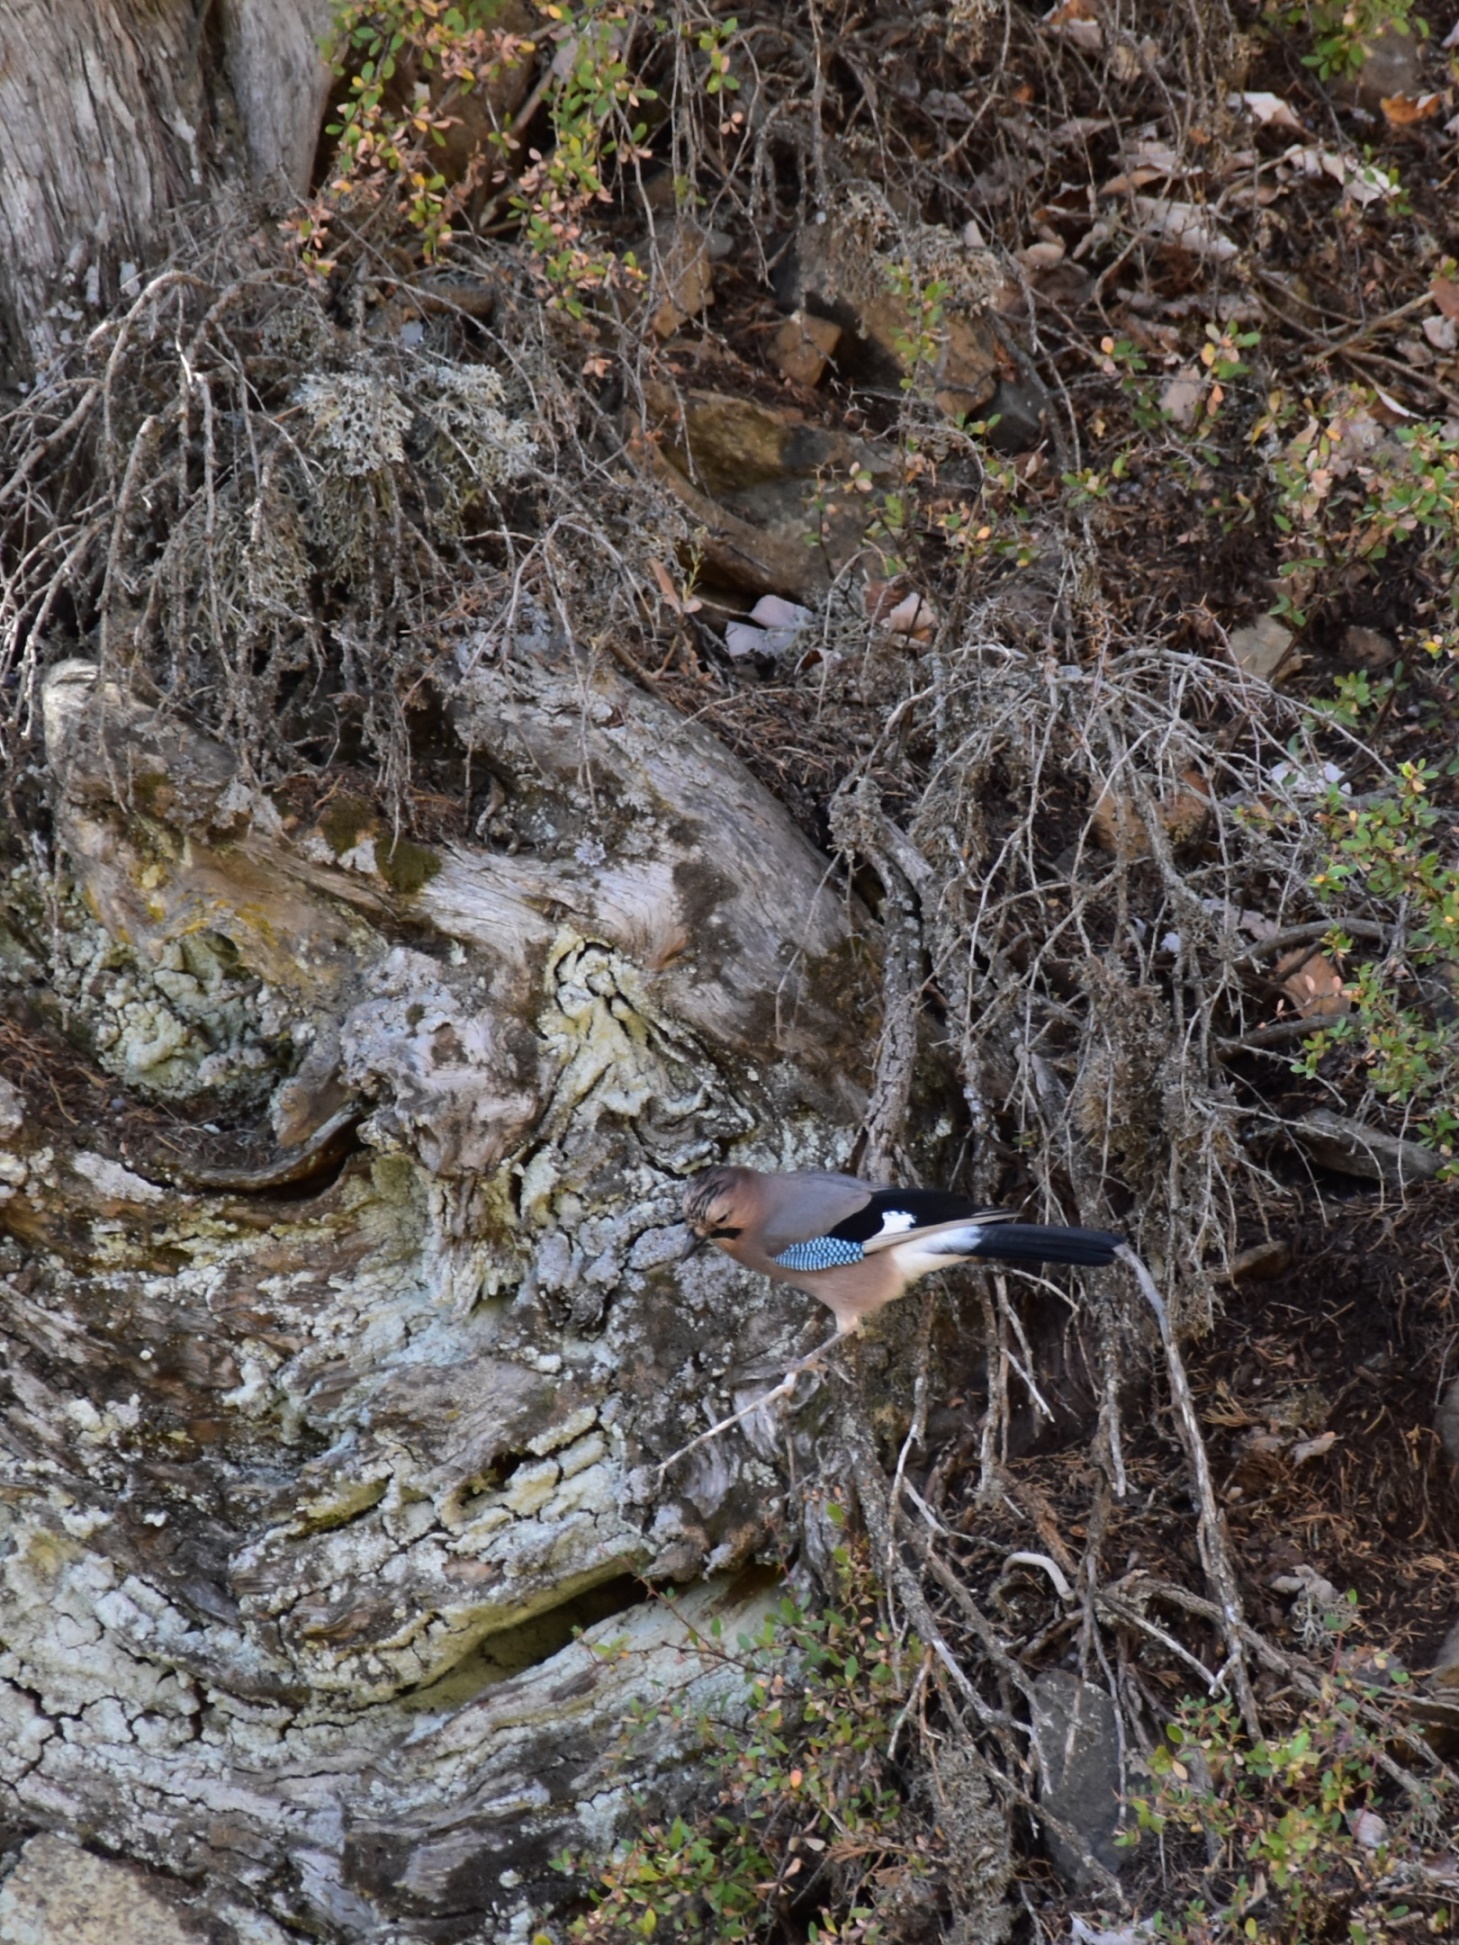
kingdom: Animalia
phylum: Chordata
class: Aves
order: Passeriformes
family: Corvidae
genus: Garrulus
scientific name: Garrulus glandarius
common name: Eurasian jay
